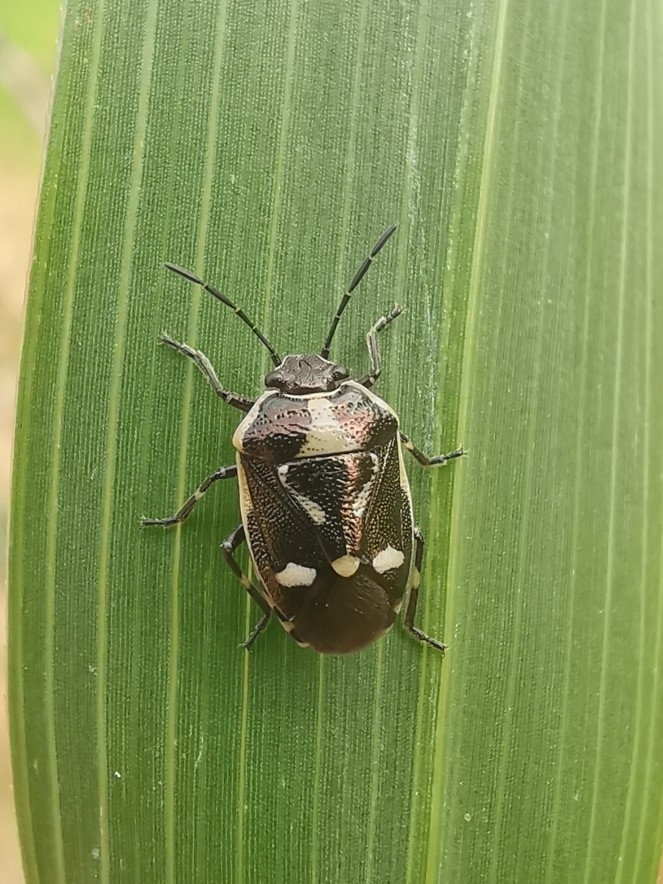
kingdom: Animalia
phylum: Arthropoda
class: Insecta
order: Hemiptera
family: Pentatomidae
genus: Eurydema
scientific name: Eurydema oleracea
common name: Cabbage bug
